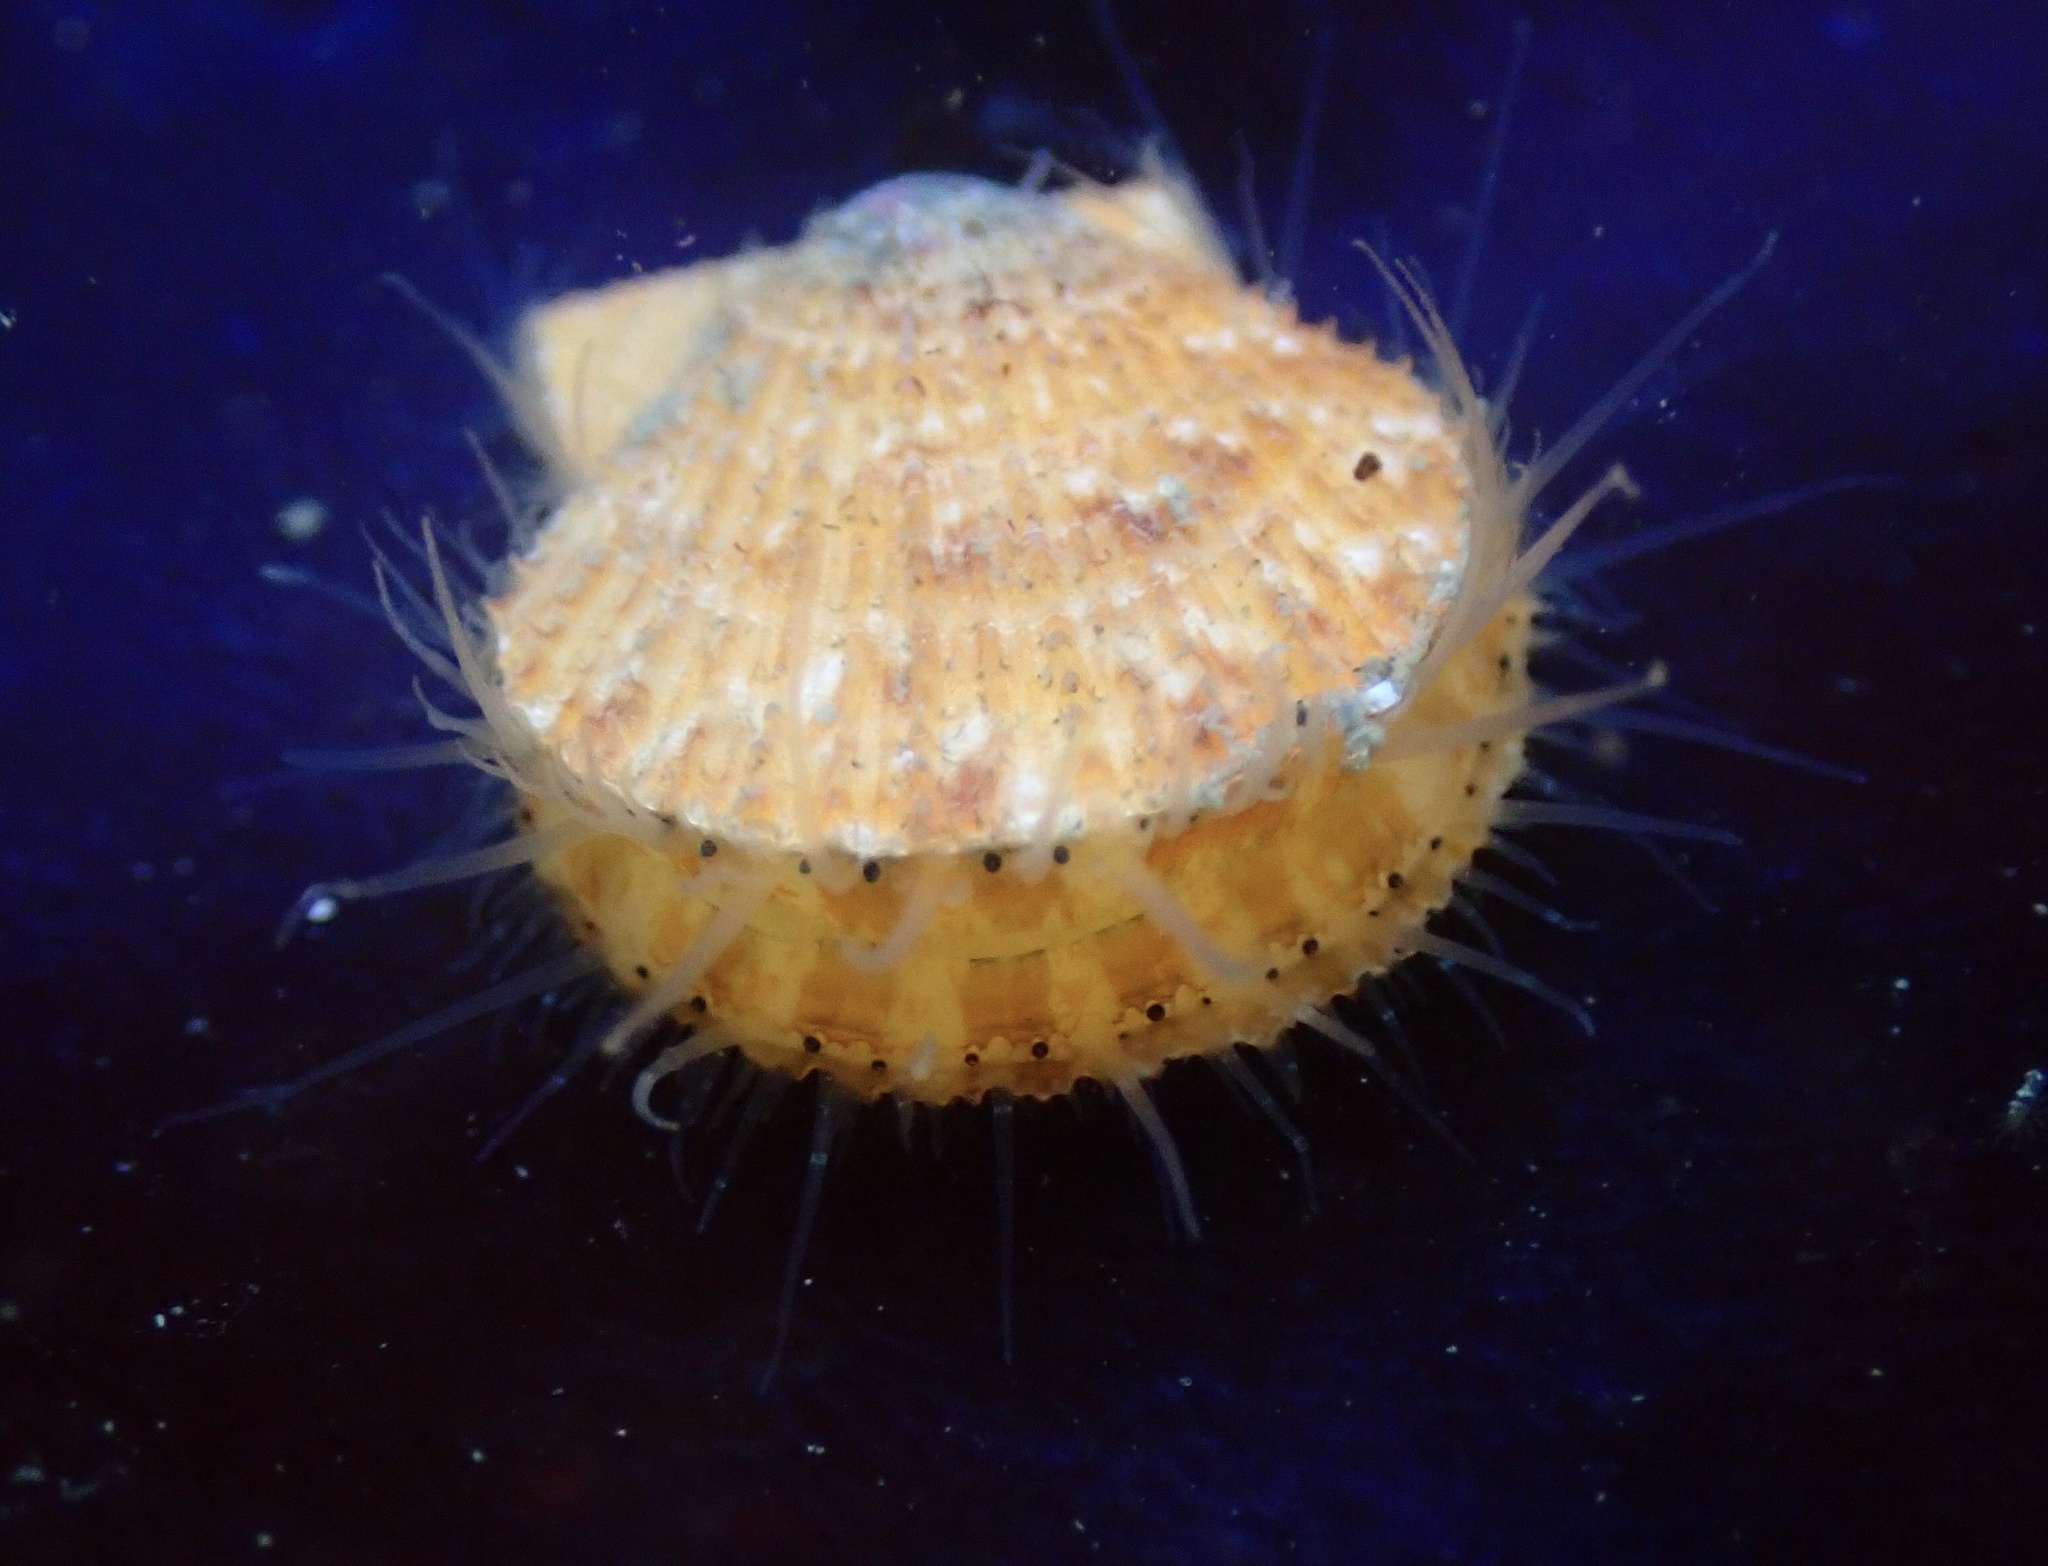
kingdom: Animalia
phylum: Mollusca
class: Bivalvia
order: Pectinida
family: Pectinidae
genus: Crassadoma
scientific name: Crassadoma gigantea
